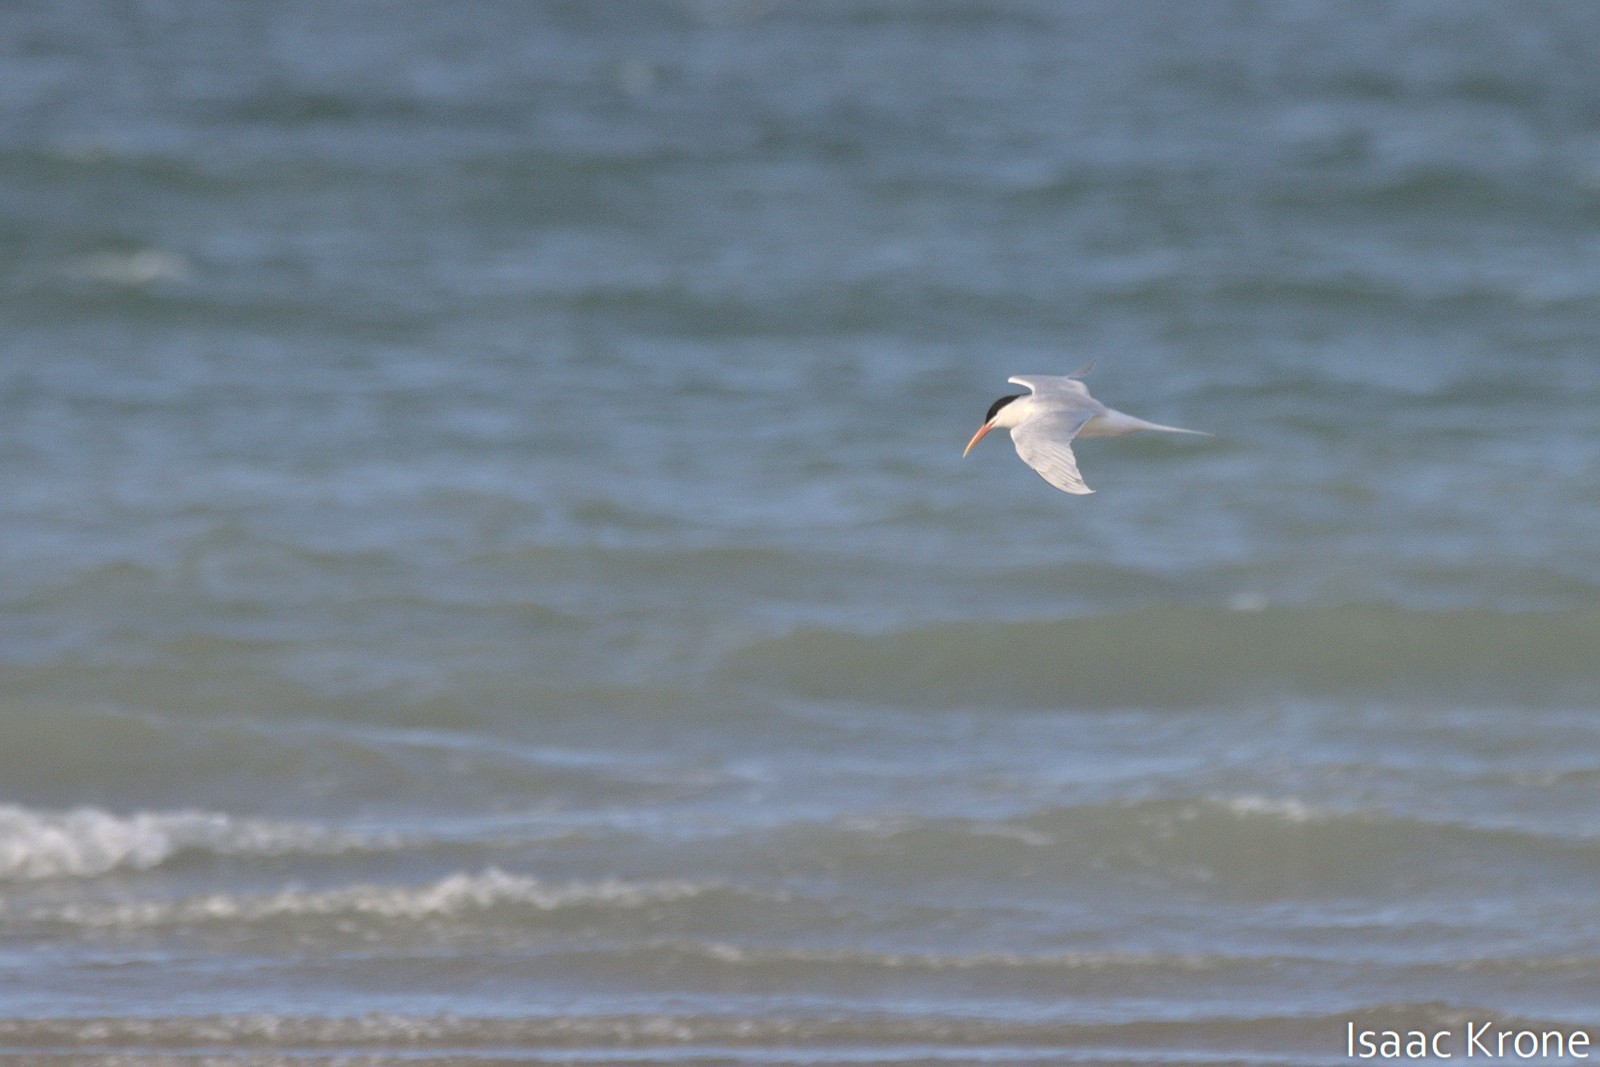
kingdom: Animalia
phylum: Chordata
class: Aves
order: Charadriiformes
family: Laridae
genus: Thalasseus
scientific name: Thalasseus elegans
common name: Elegant tern
